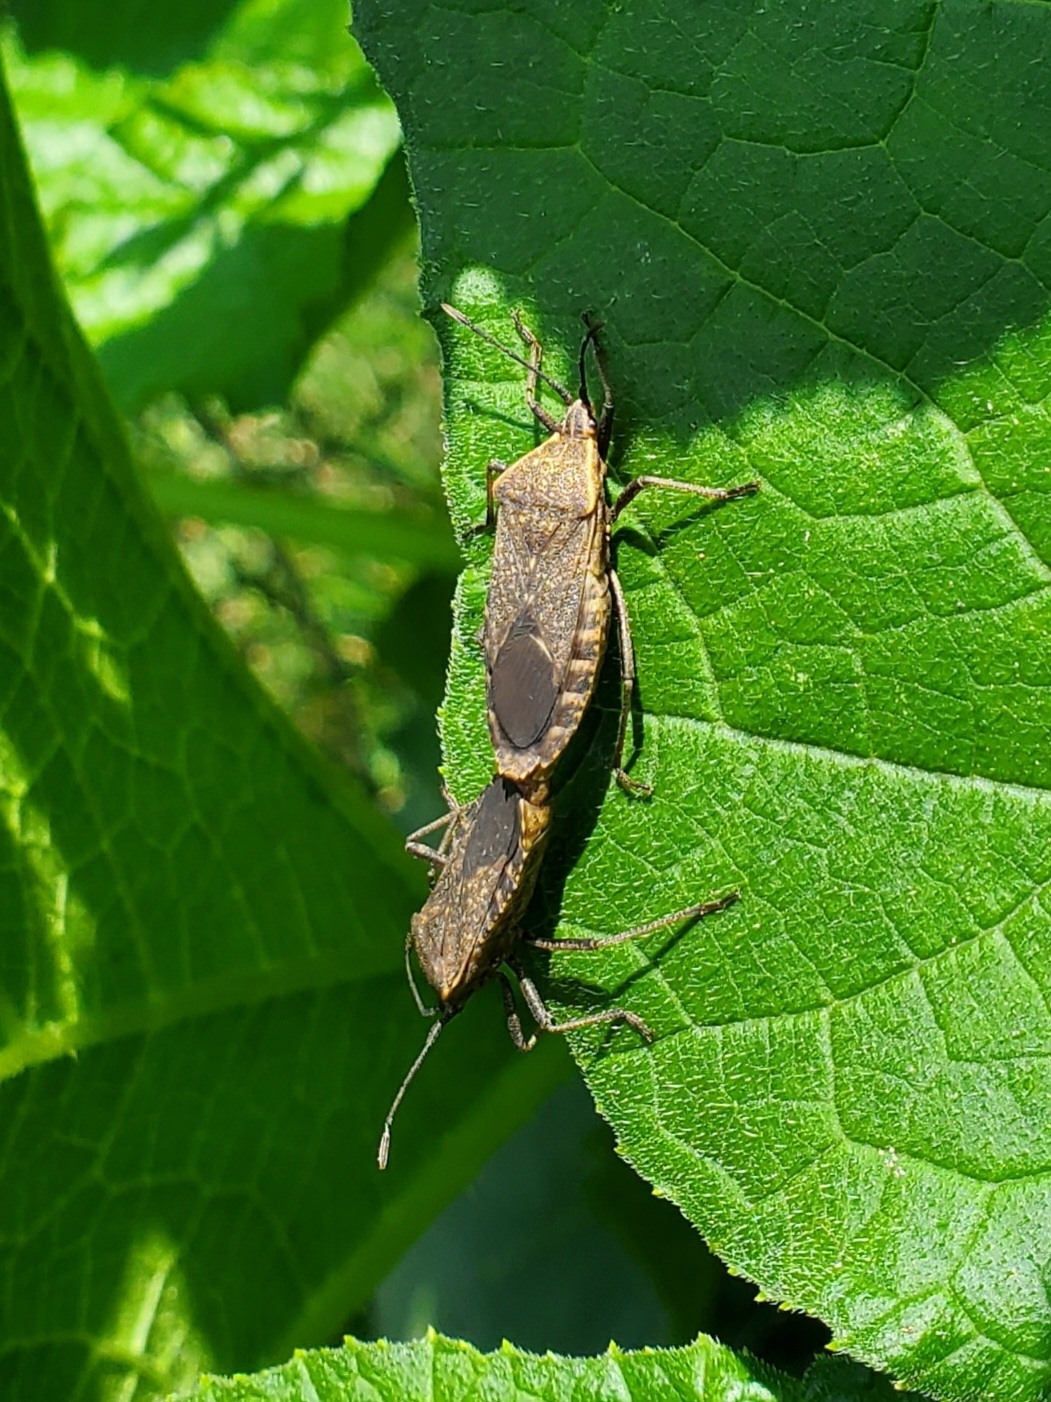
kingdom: Animalia
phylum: Arthropoda
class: Insecta
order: Hemiptera
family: Coreidae
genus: Anasa
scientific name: Anasa tristis
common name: Squash bug
